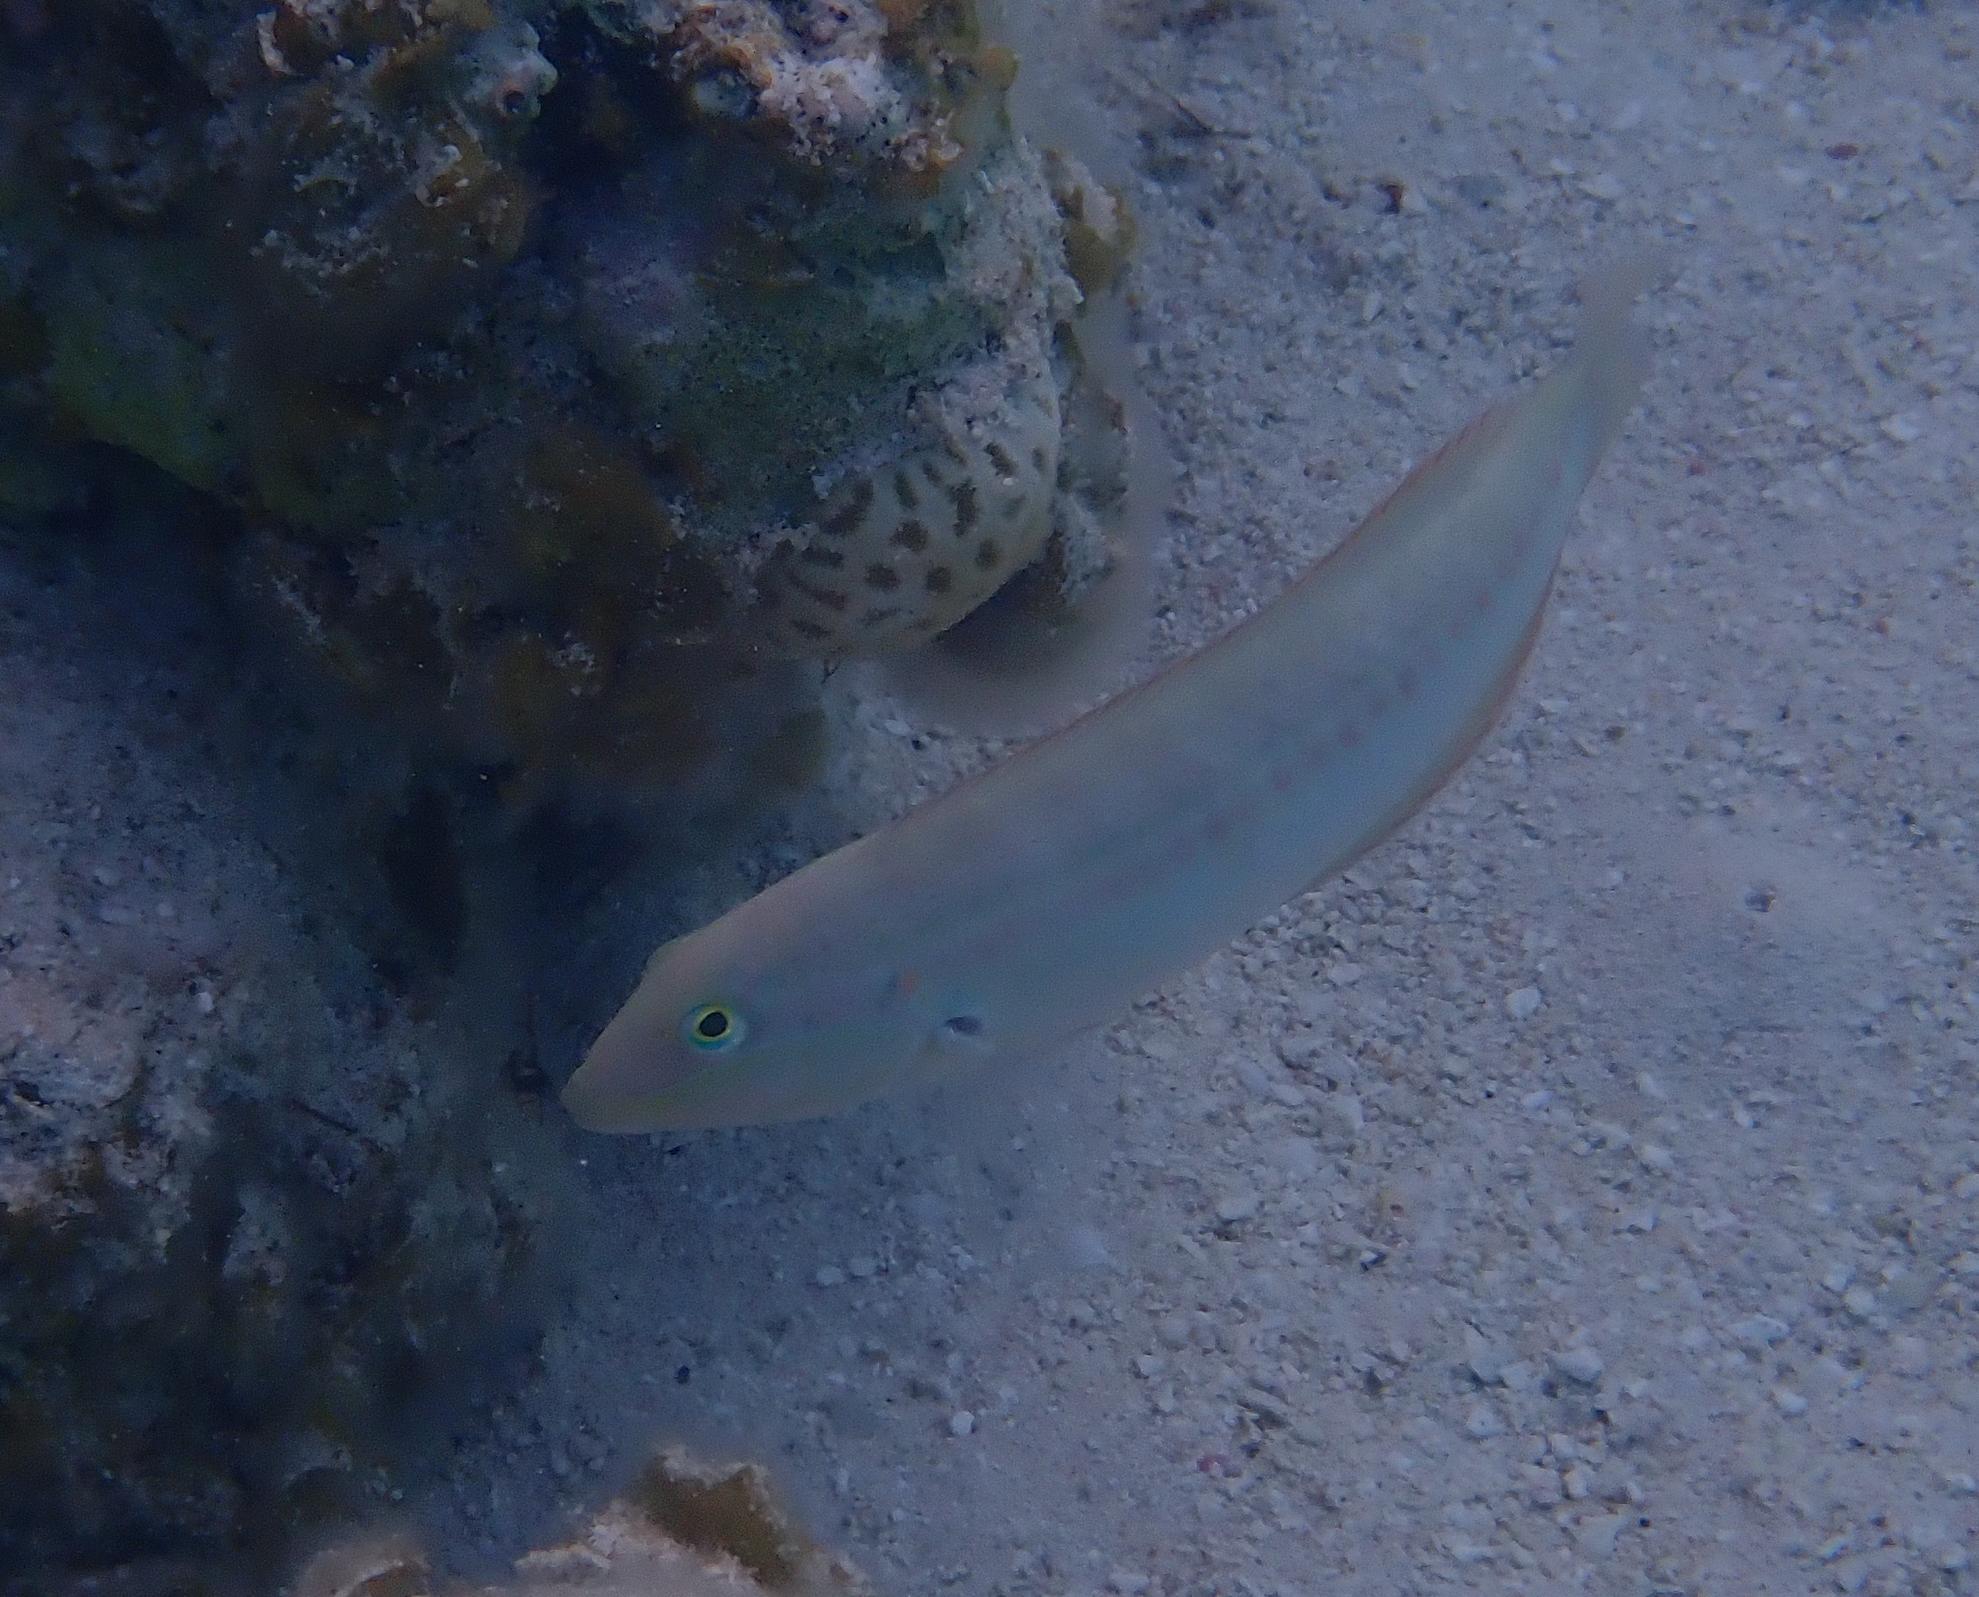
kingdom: Animalia
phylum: Chordata
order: Perciformes
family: Labridae
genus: Halichoeres
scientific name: Halichoeres bivittatus
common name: Slippery dick
